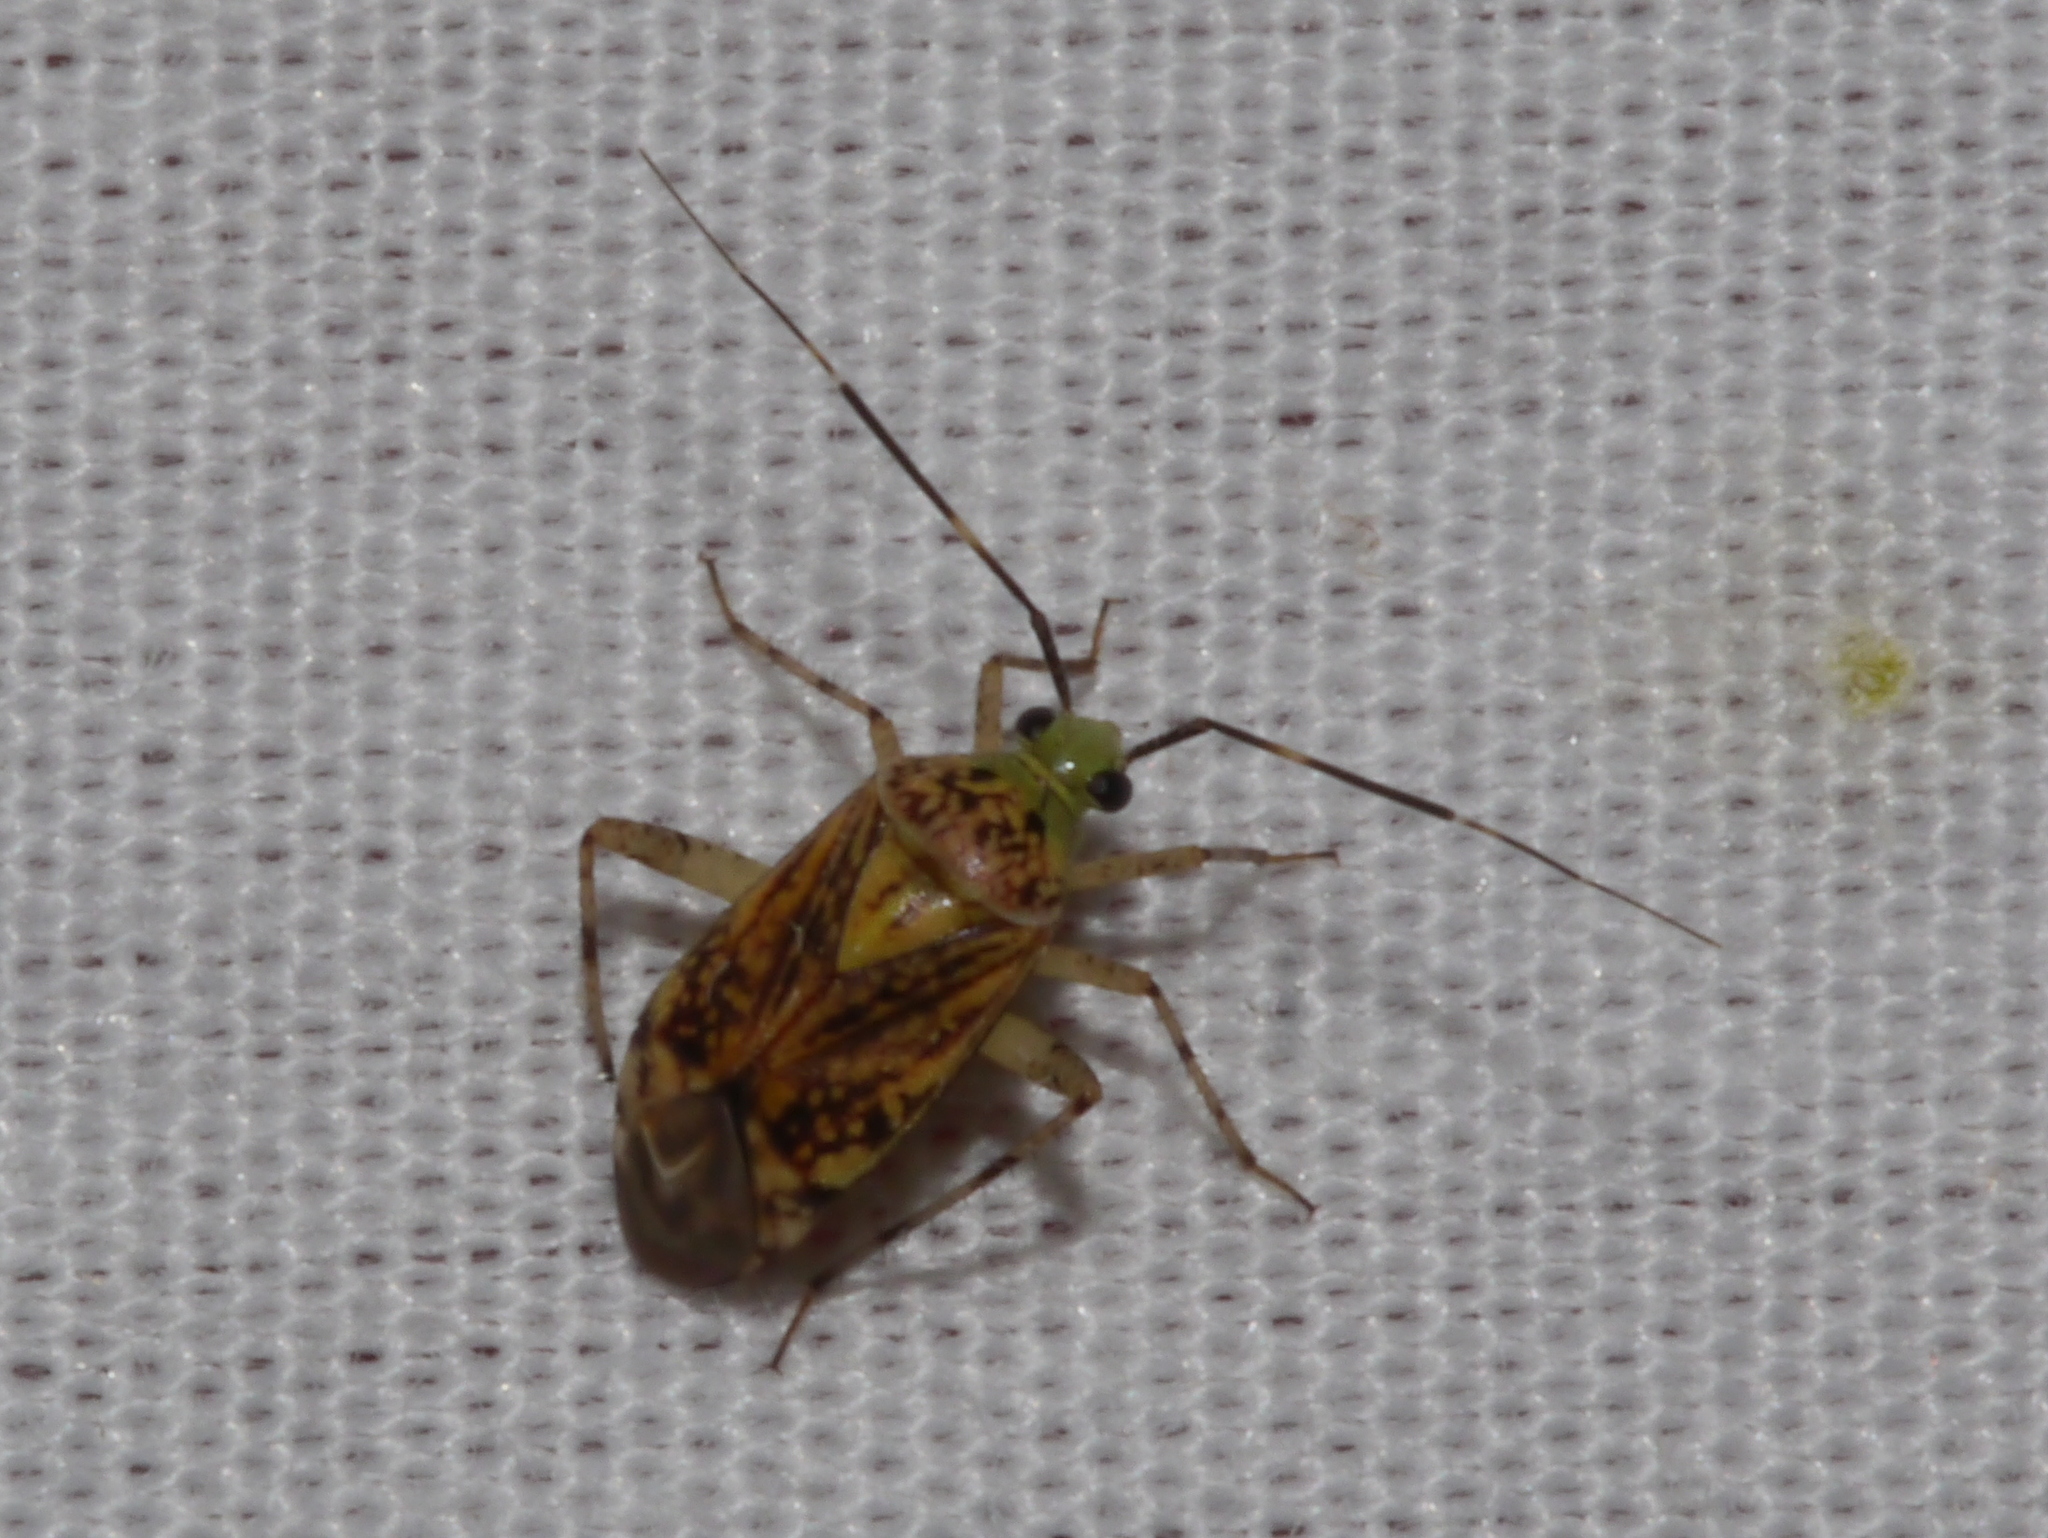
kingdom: Animalia
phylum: Arthropoda
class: Insecta
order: Hemiptera
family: Miridae
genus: Taedia
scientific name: Taedia marmorata
